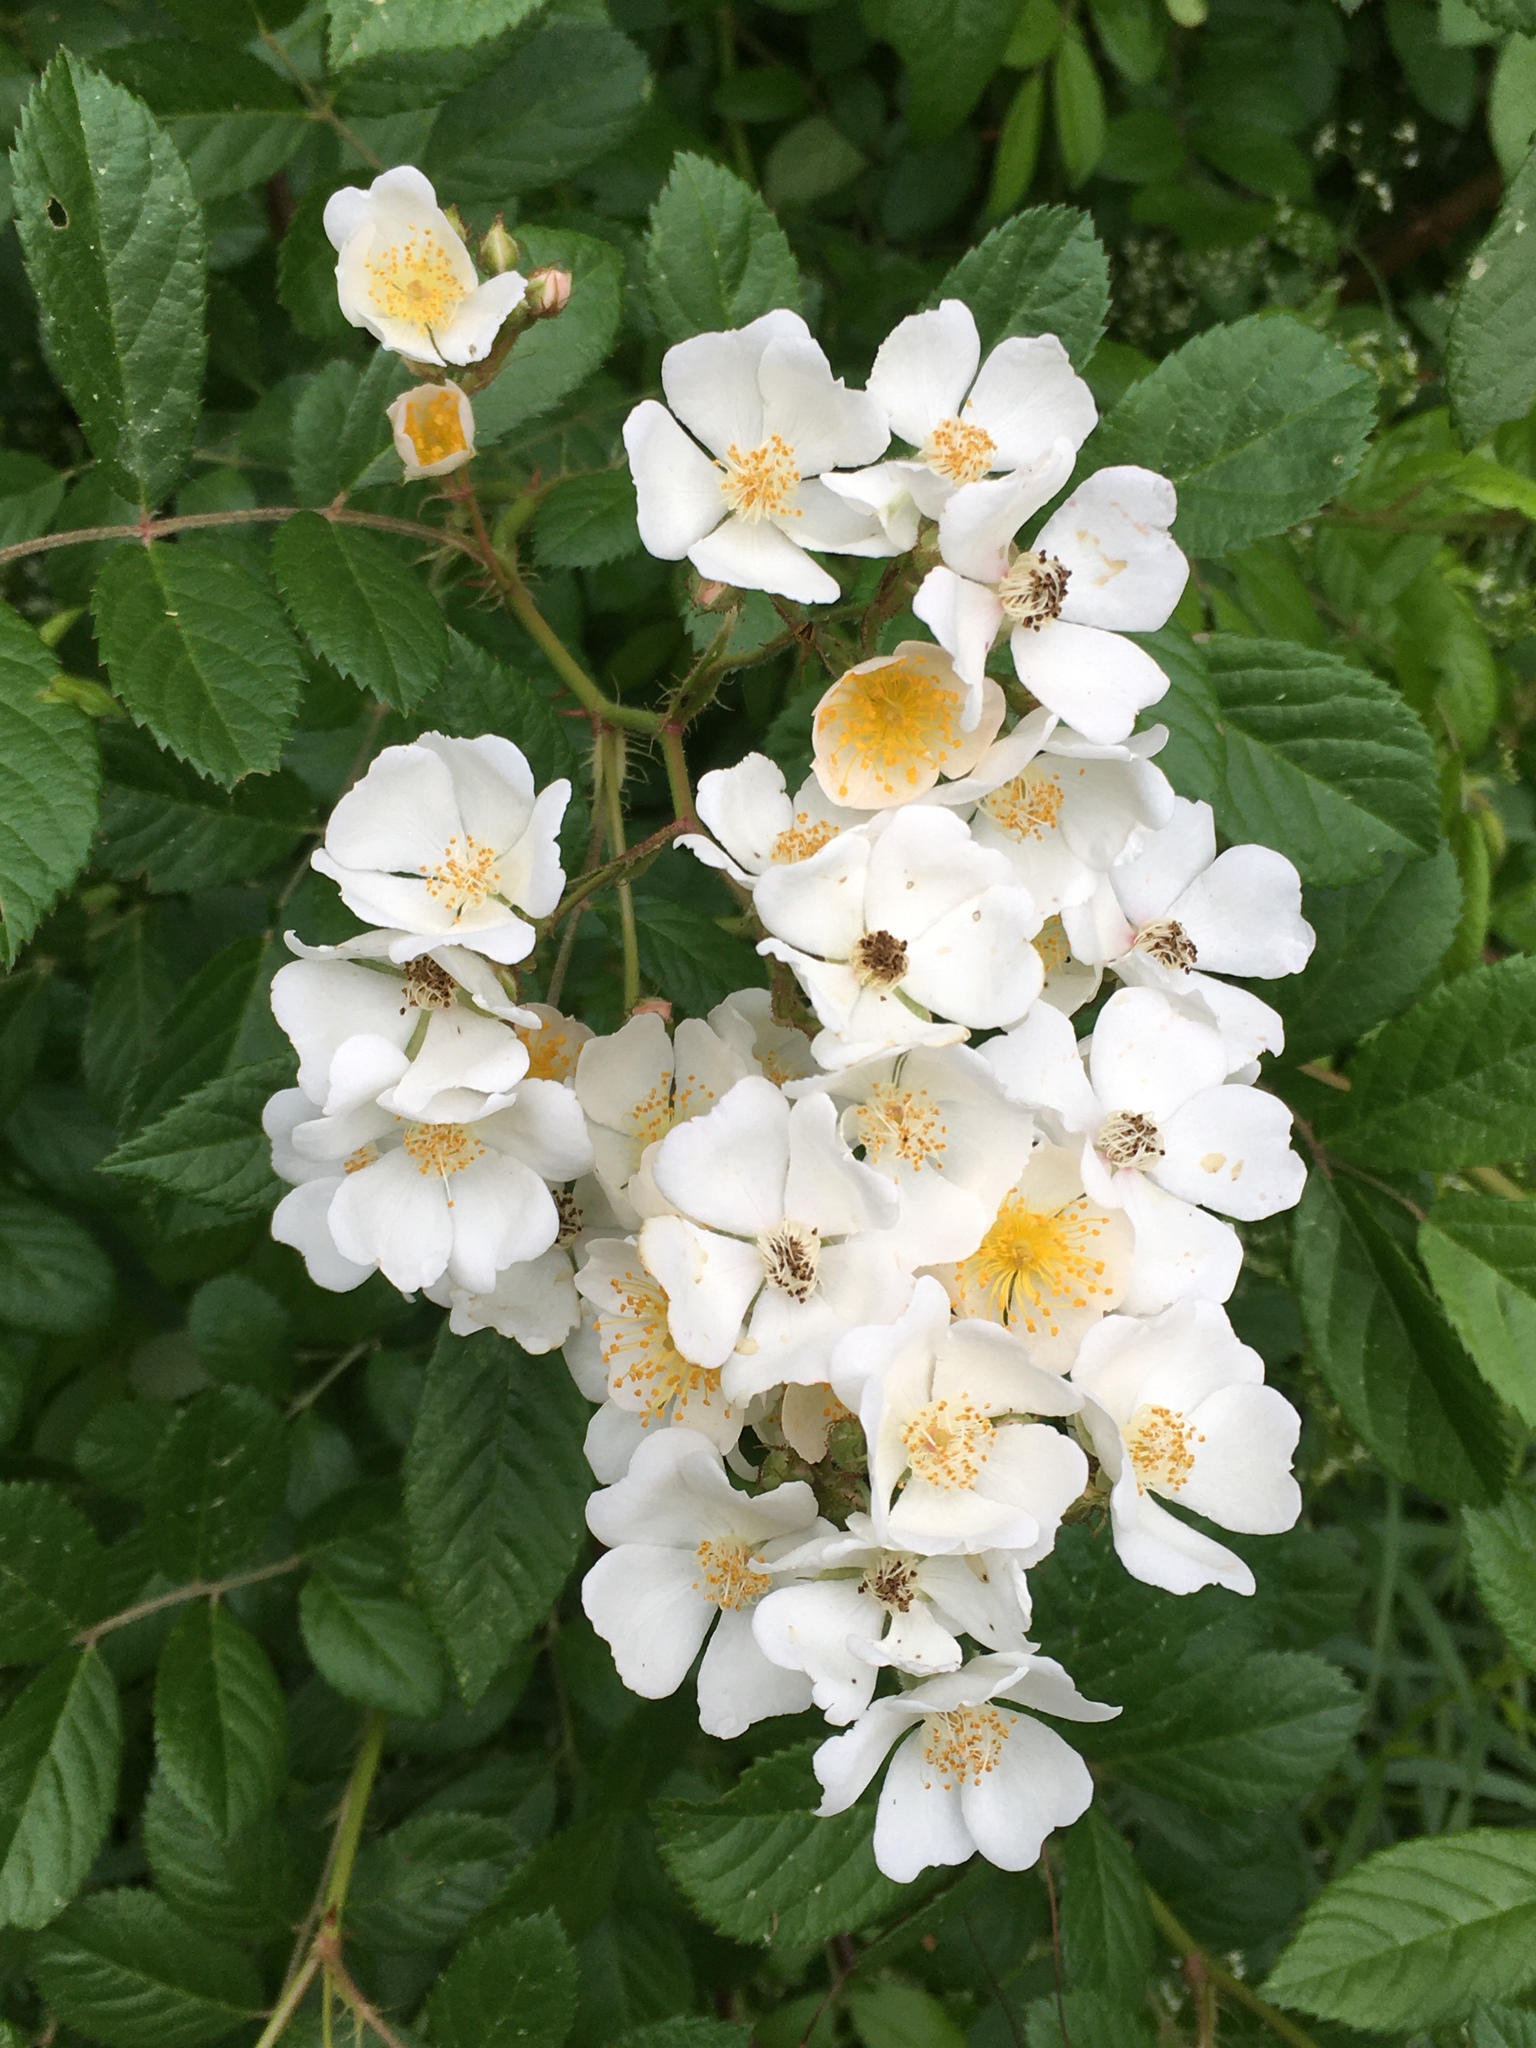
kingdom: Plantae
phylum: Tracheophyta
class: Magnoliopsida
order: Rosales
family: Rosaceae
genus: Rosa
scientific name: Rosa multiflora
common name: Multiflora rose
